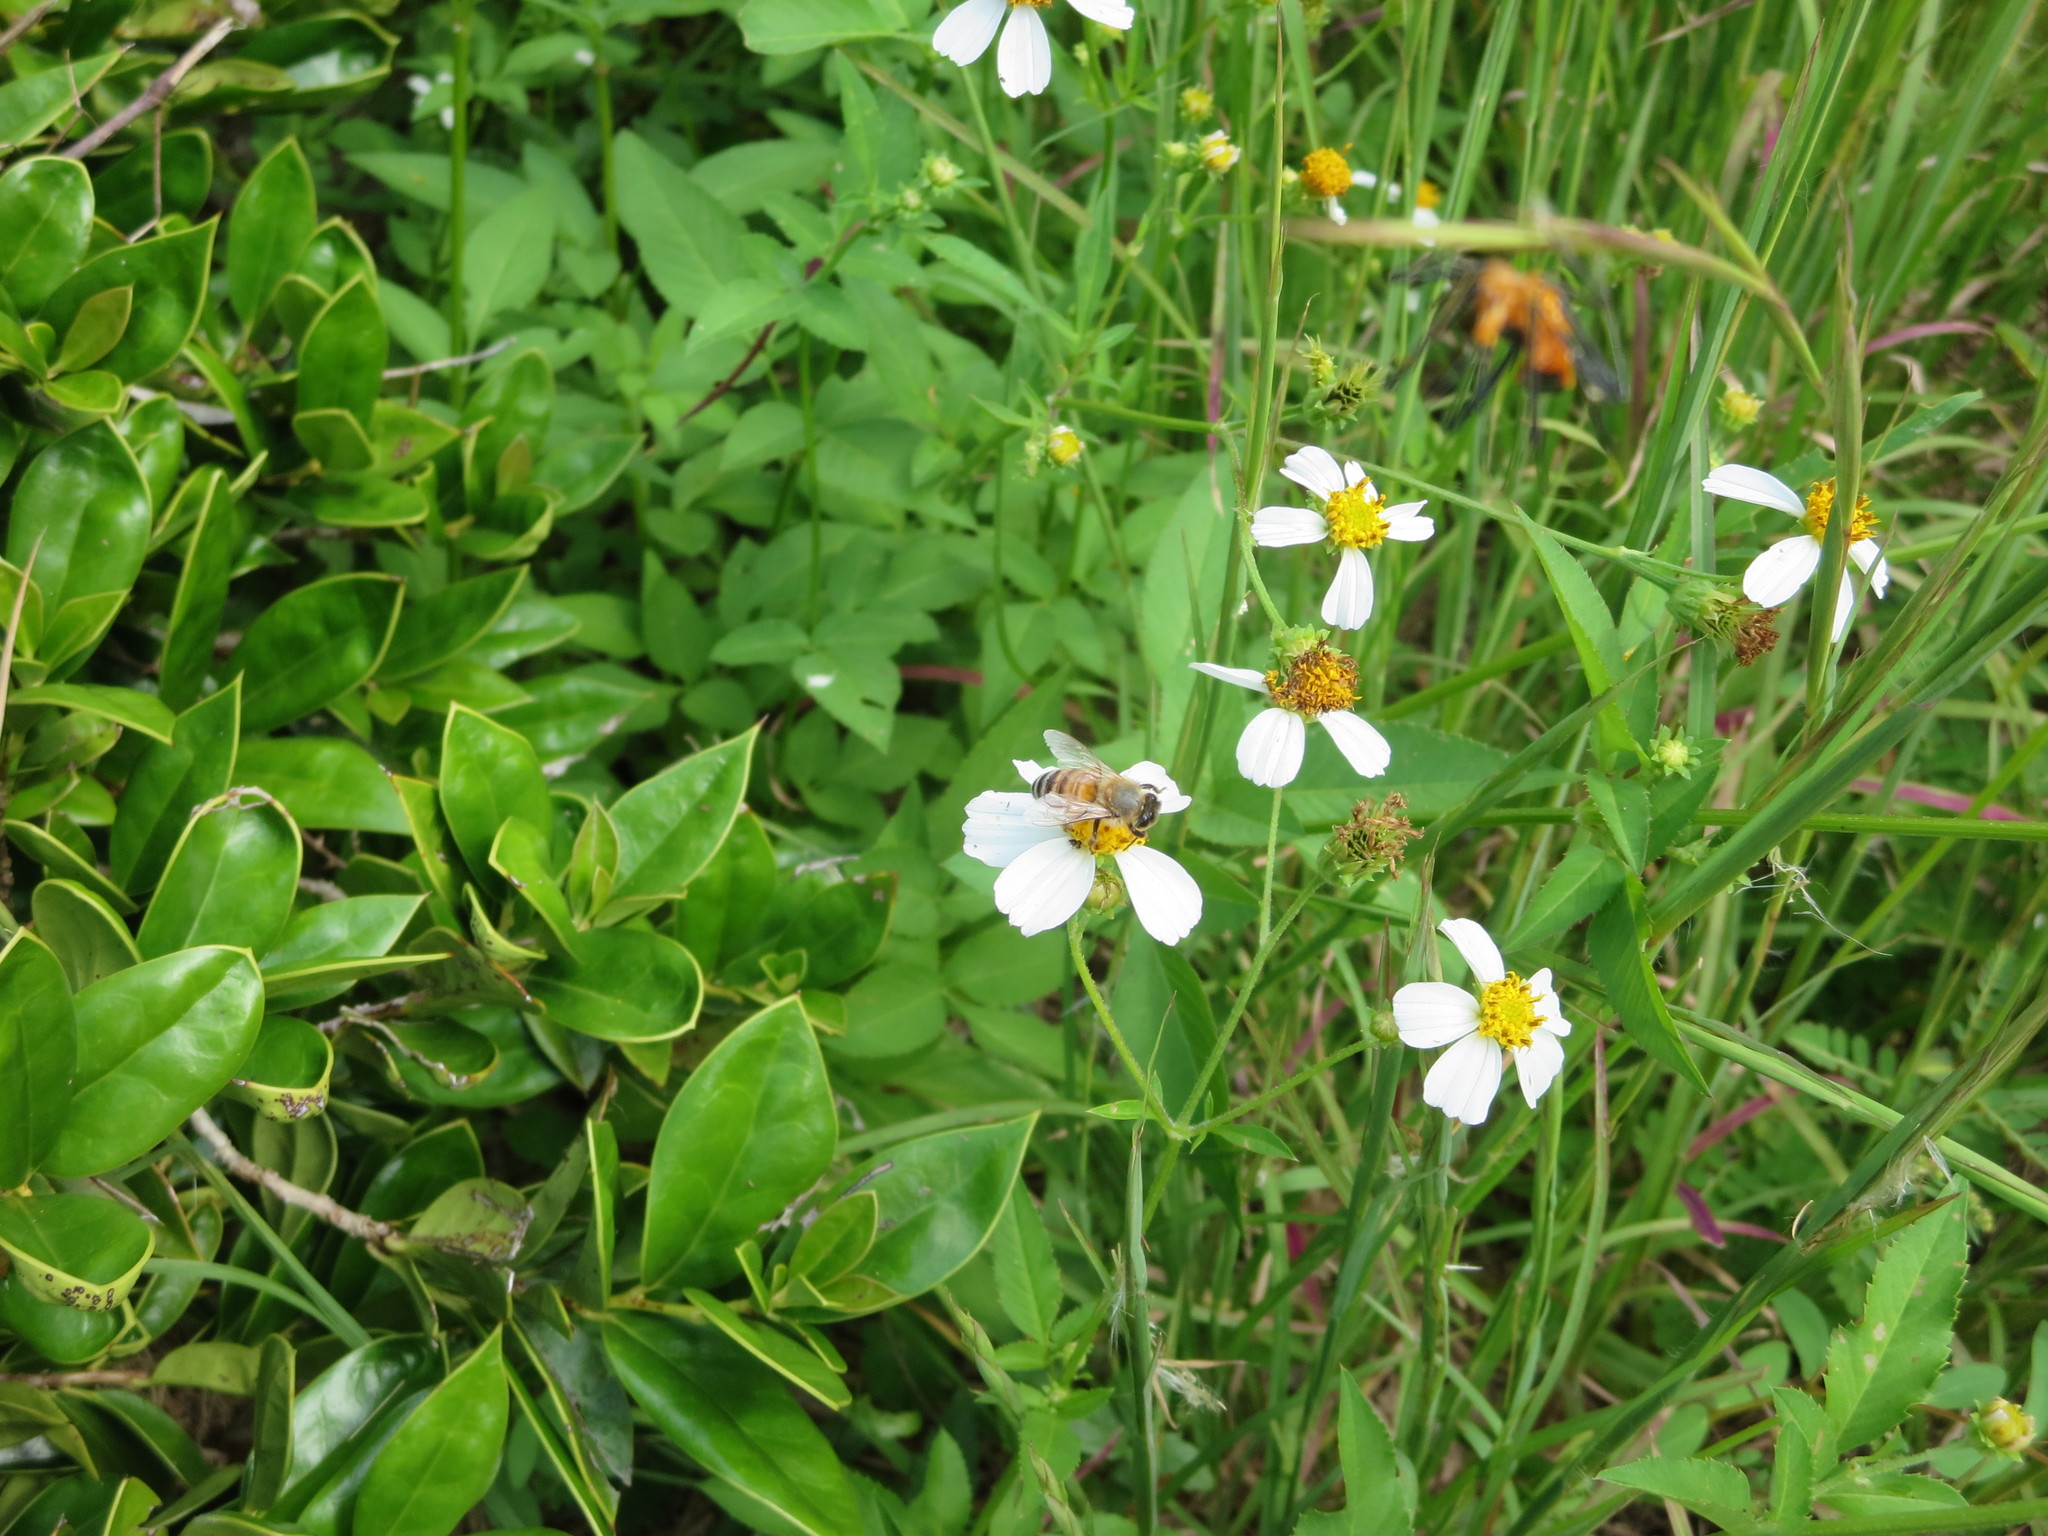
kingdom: Animalia
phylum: Arthropoda
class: Insecta
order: Hymenoptera
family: Apidae
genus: Apis
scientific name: Apis mellifera
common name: Honey bee
